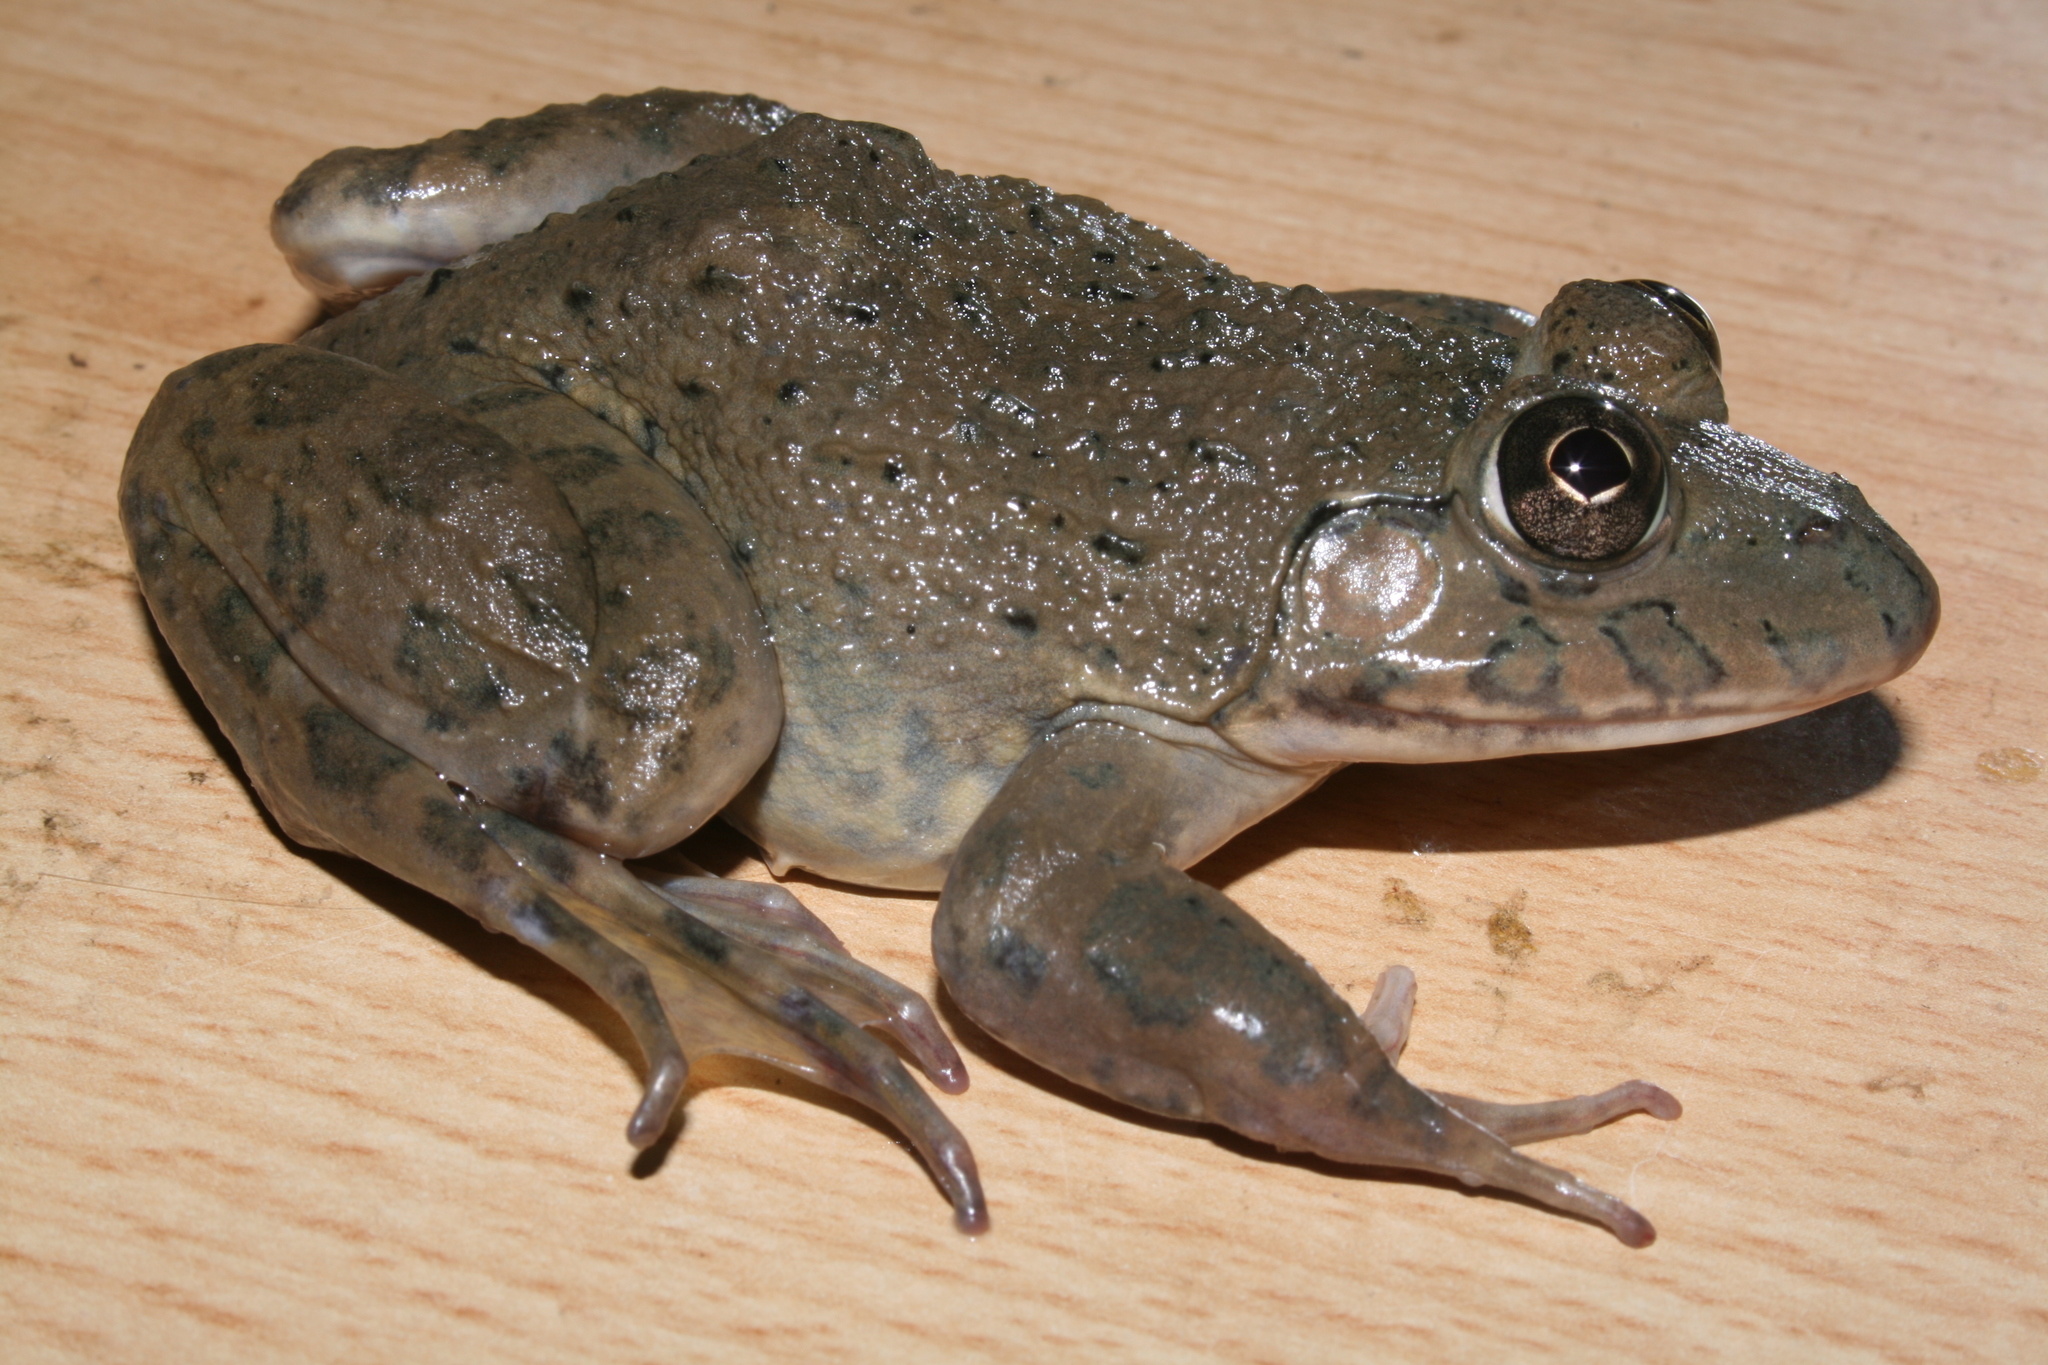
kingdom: Animalia
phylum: Chordata
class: Amphibia
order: Anura
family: Dicroglossidae
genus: Hoplobatrachus
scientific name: Hoplobatrachus occipitalis
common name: Eastern groove-crowned bullfrog
